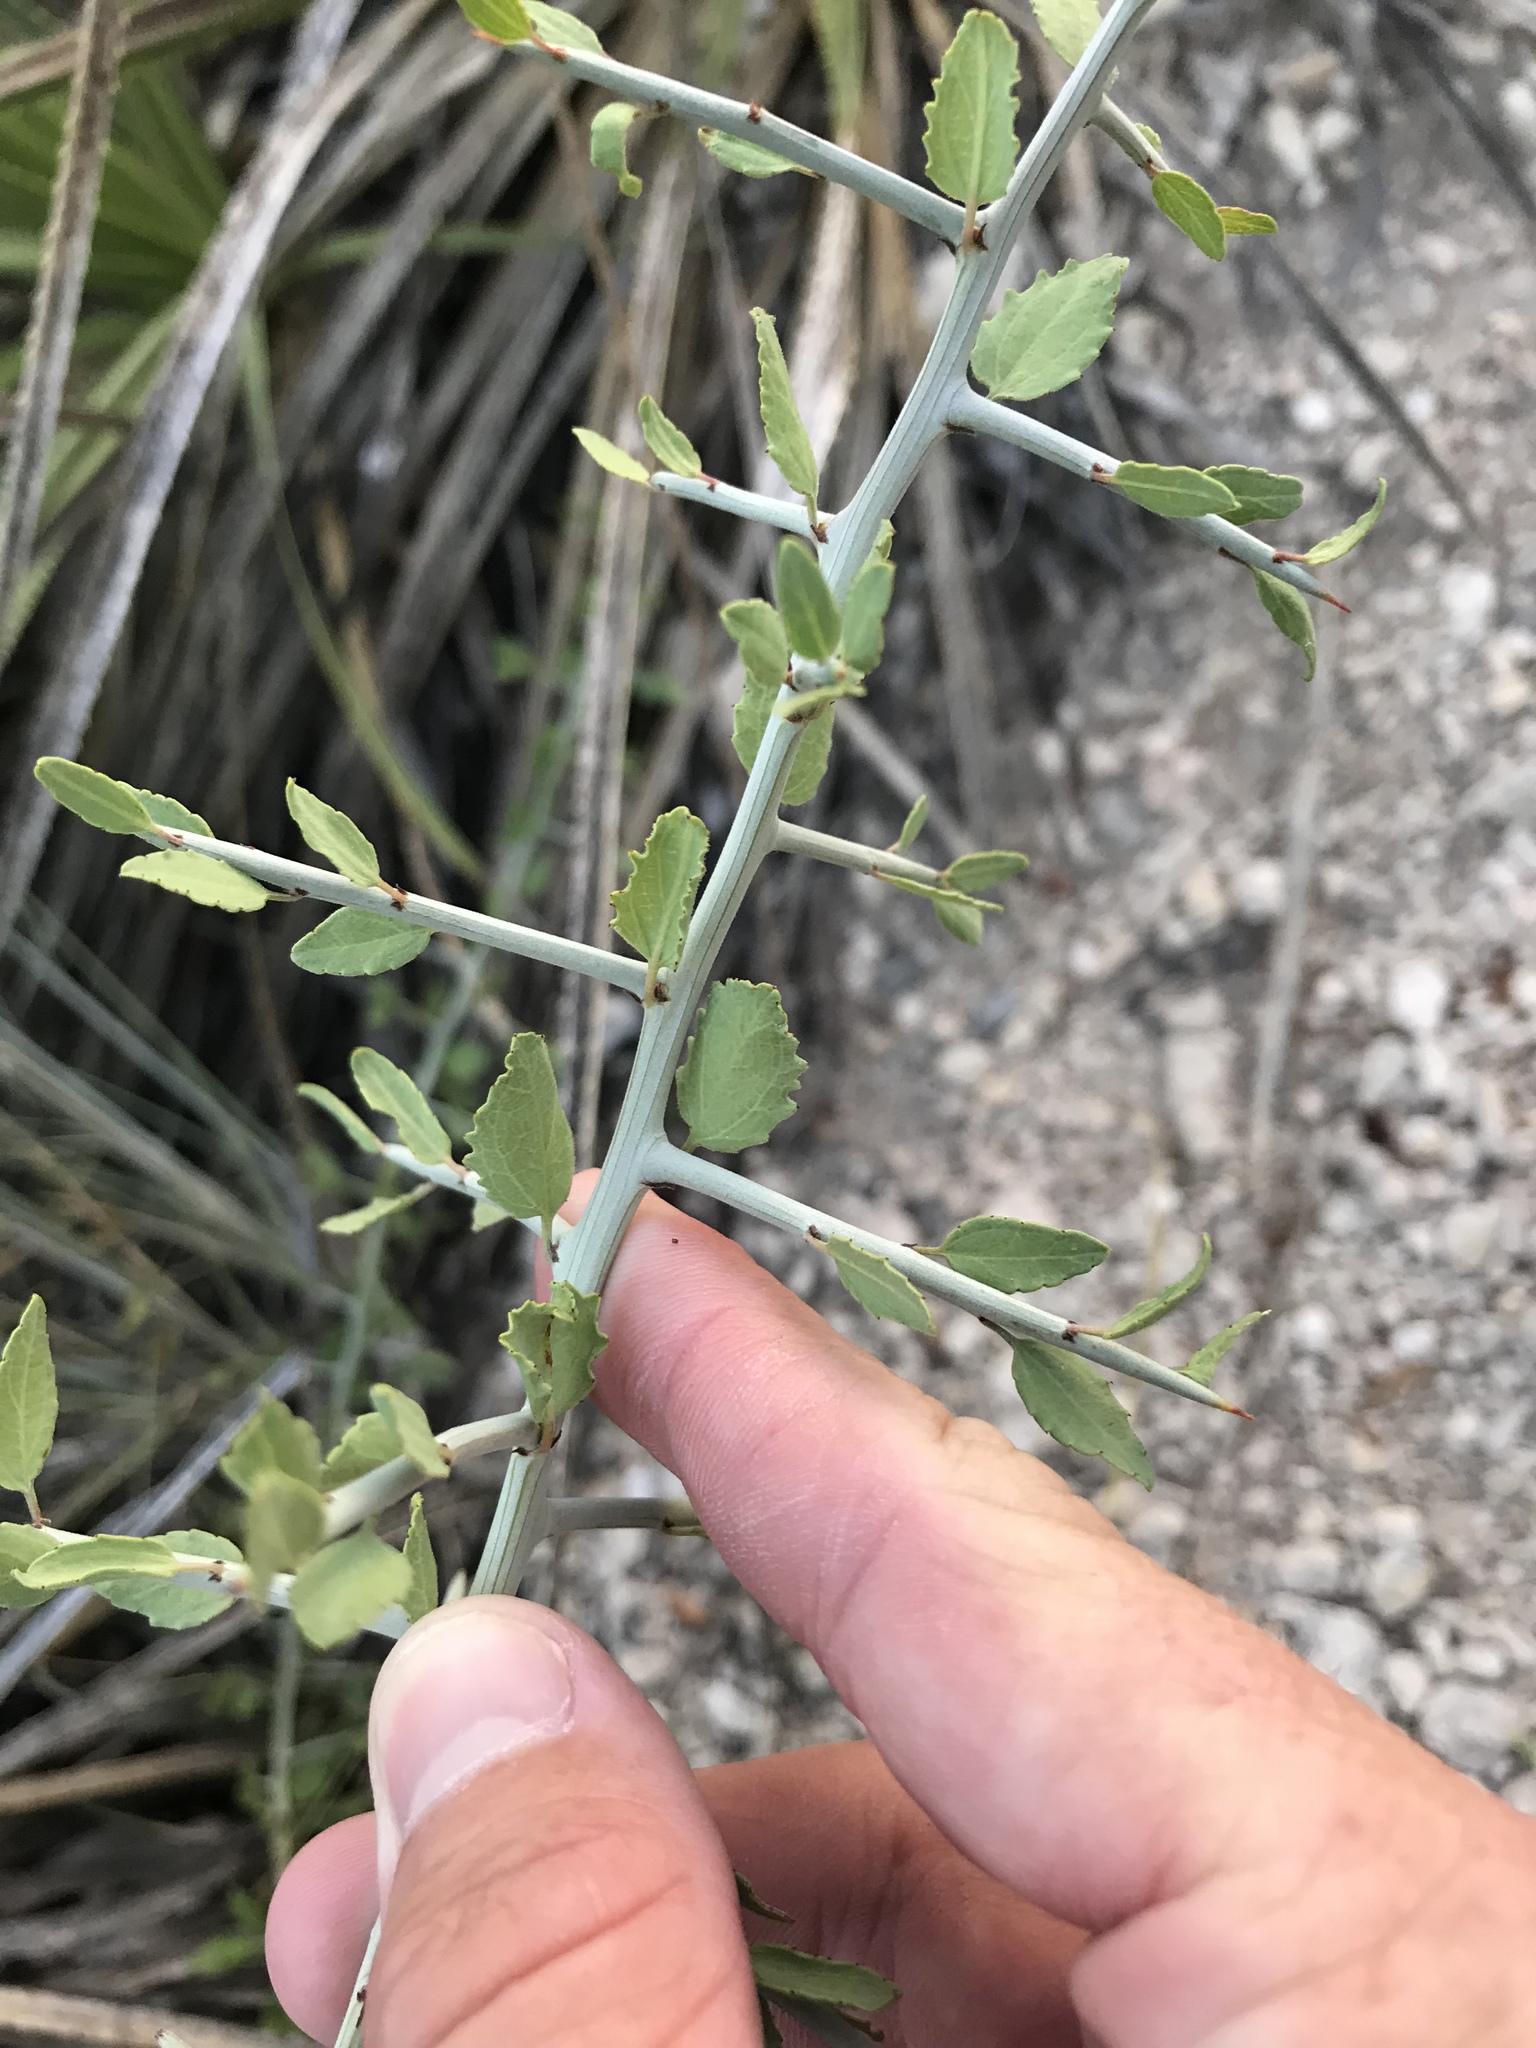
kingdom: Plantae
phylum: Tracheophyta
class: Magnoliopsida
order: Rosales
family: Rhamnaceae
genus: Sarcomphalus
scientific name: Sarcomphalus obtusifolius
